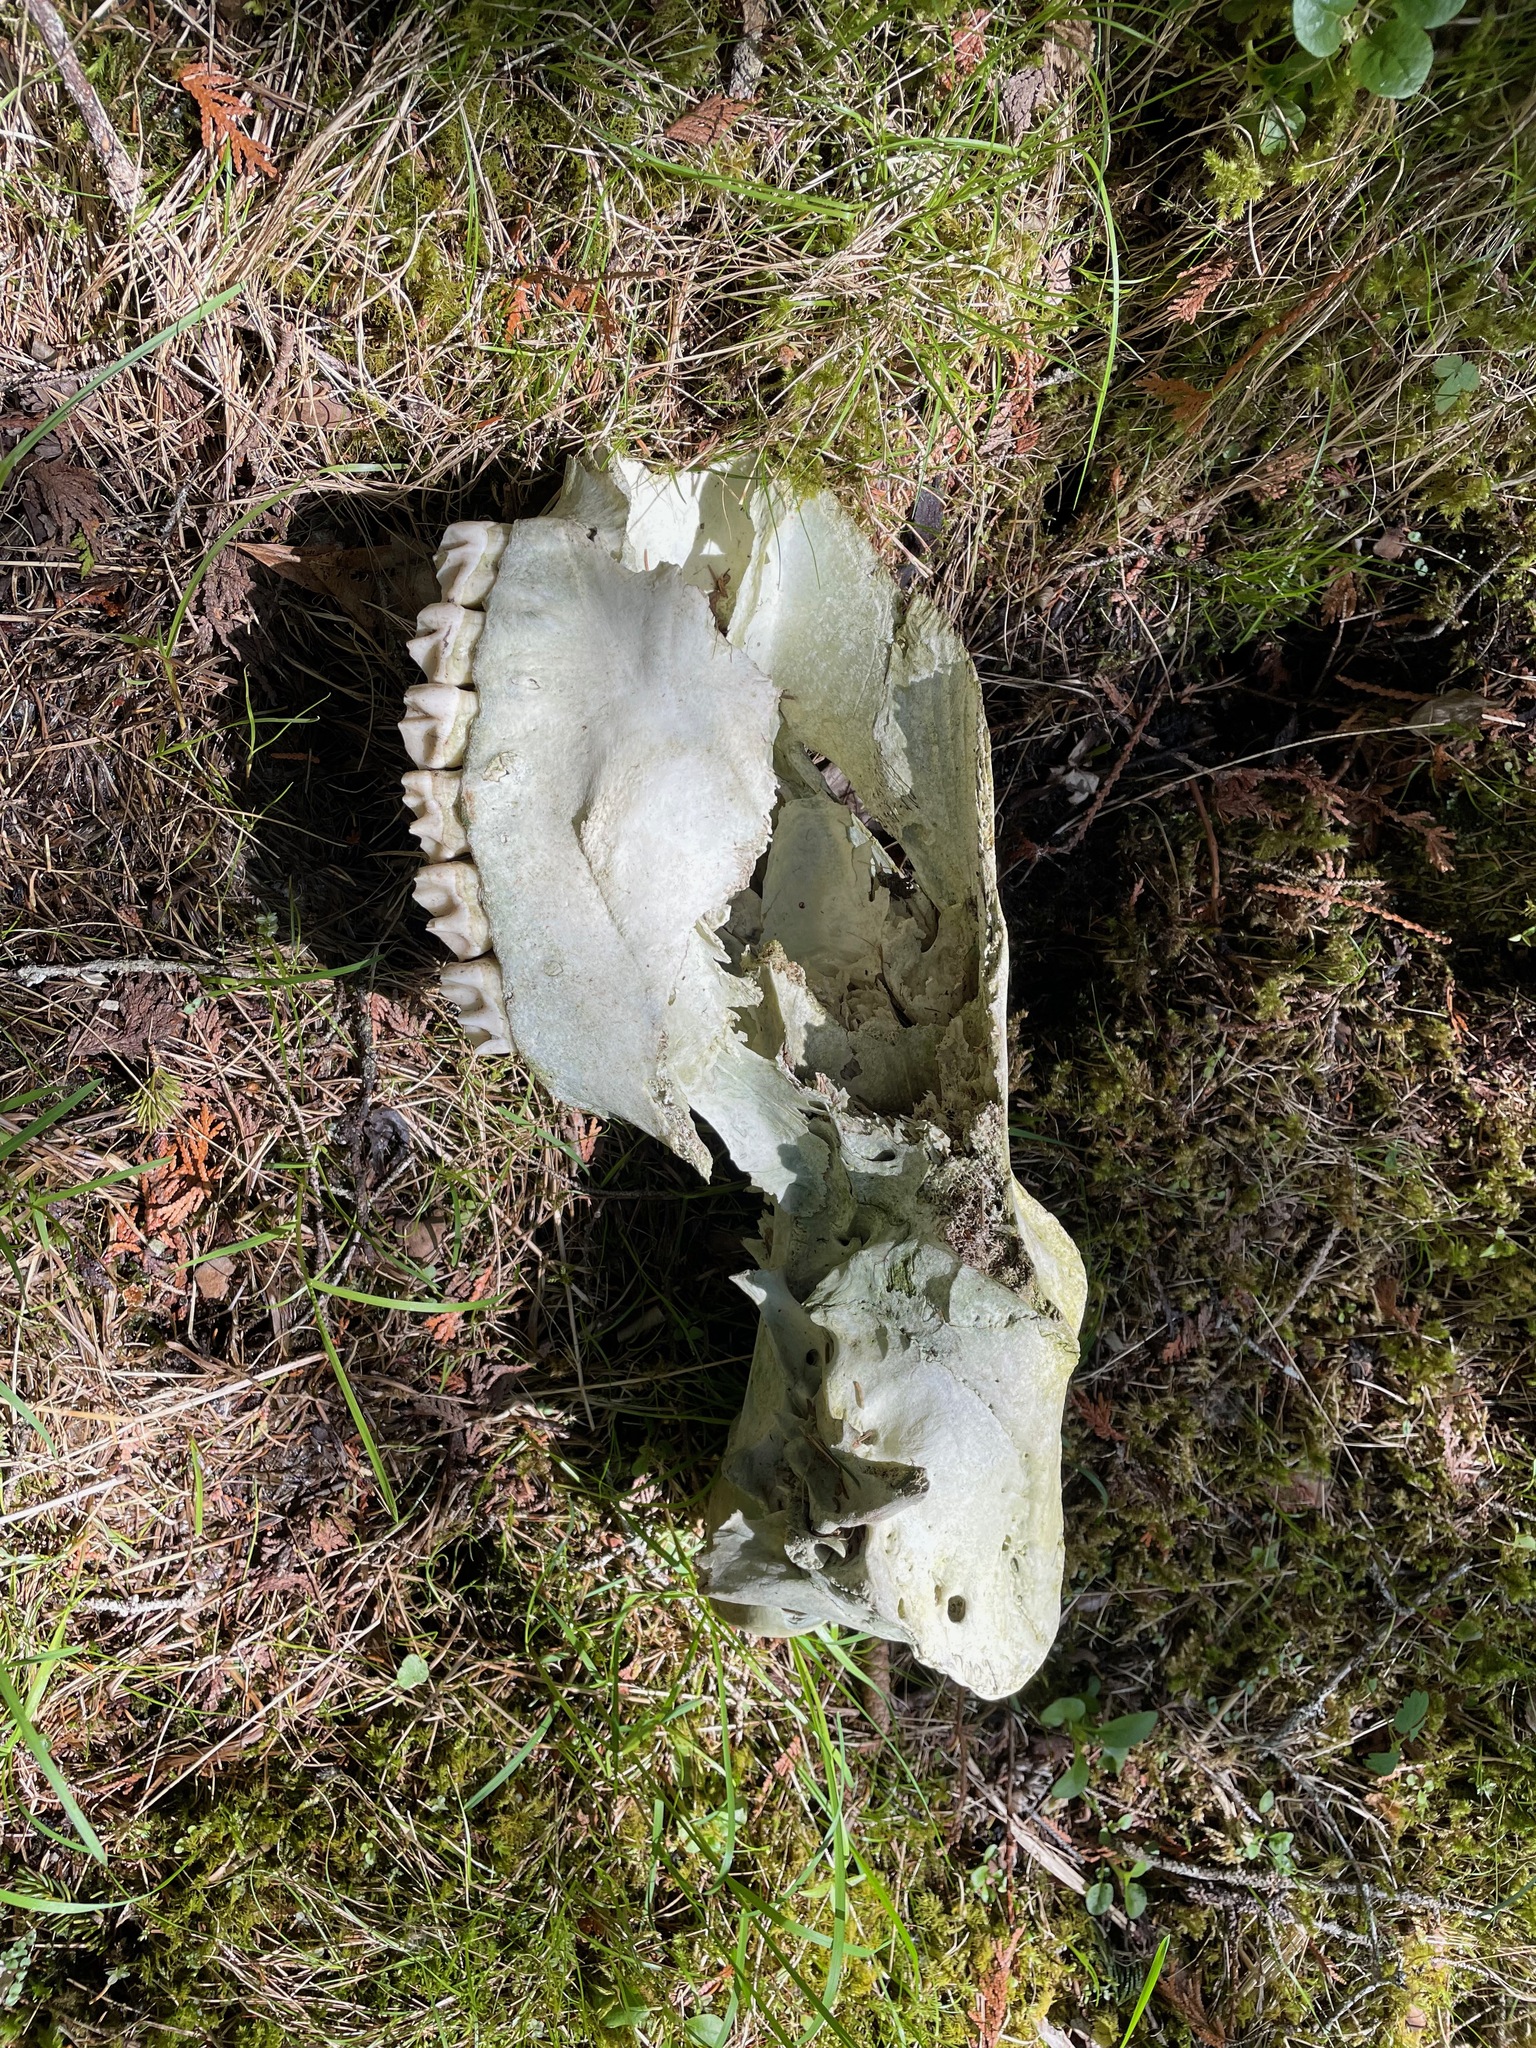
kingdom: Animalia
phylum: Chordata
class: Mammalia
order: Artiodactyla
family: Cervidae
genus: Alces
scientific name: Alces alces
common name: Moose
